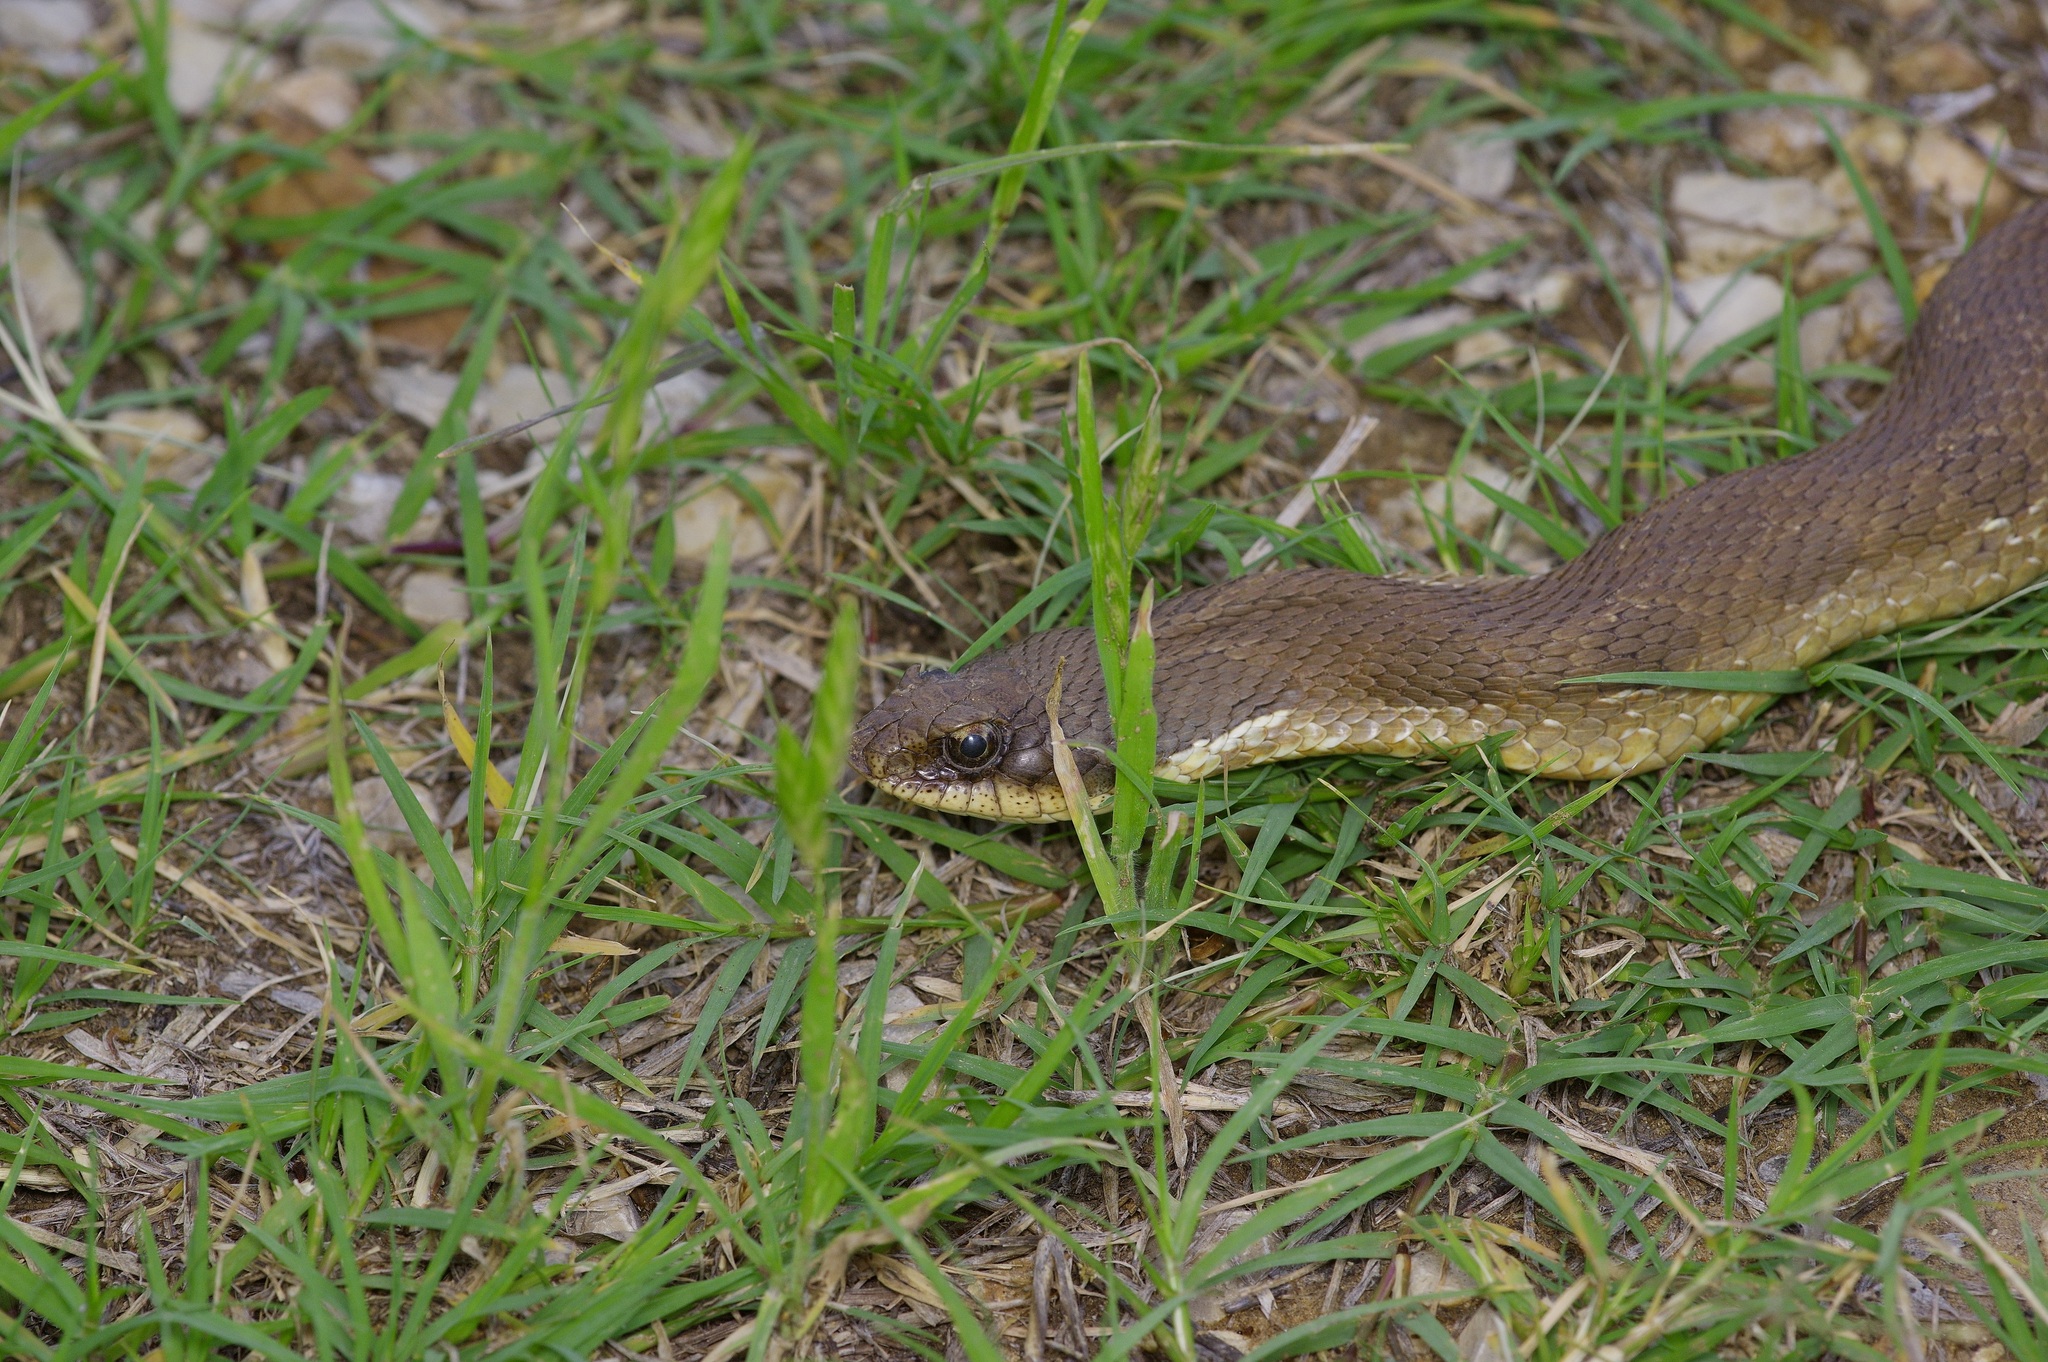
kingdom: Animalia
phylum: Chordata
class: Squamata
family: Colubridae
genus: Heterodon
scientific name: Heterodon platirhinos
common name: Eastern hognose snake
